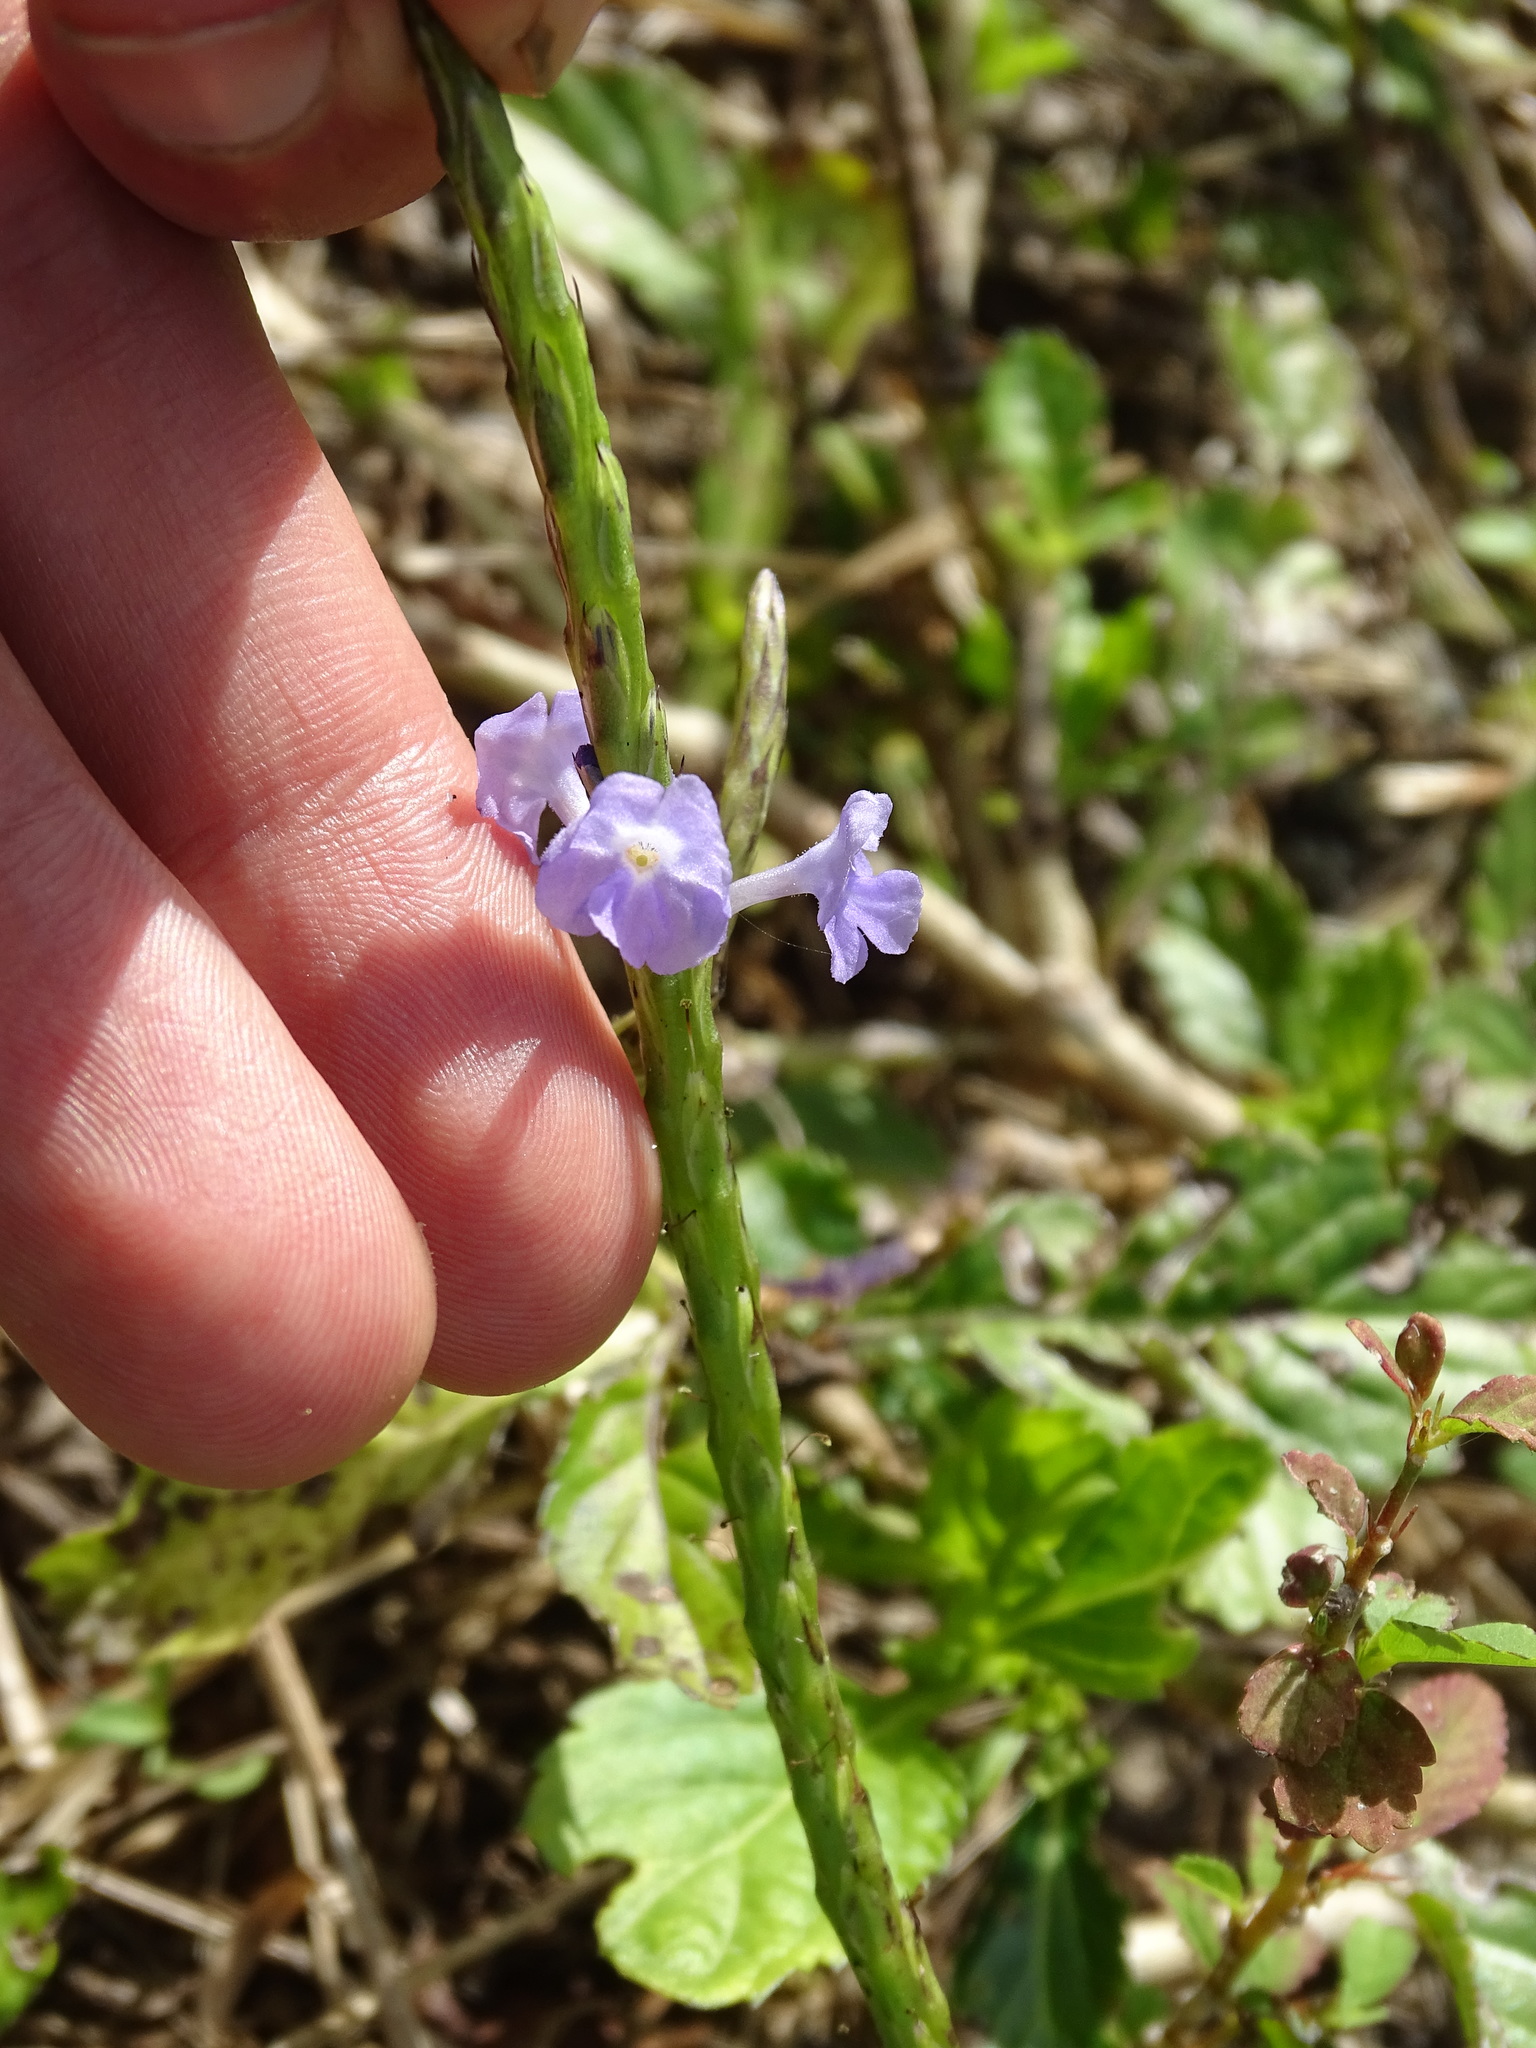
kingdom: Plantae
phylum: Tracheophyta
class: Magnoliopsida
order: Lamiales
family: Verbenaceae
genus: Stachytarpheta
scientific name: Stachytarpheta jamaicensis
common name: Light-blue snakeweed
